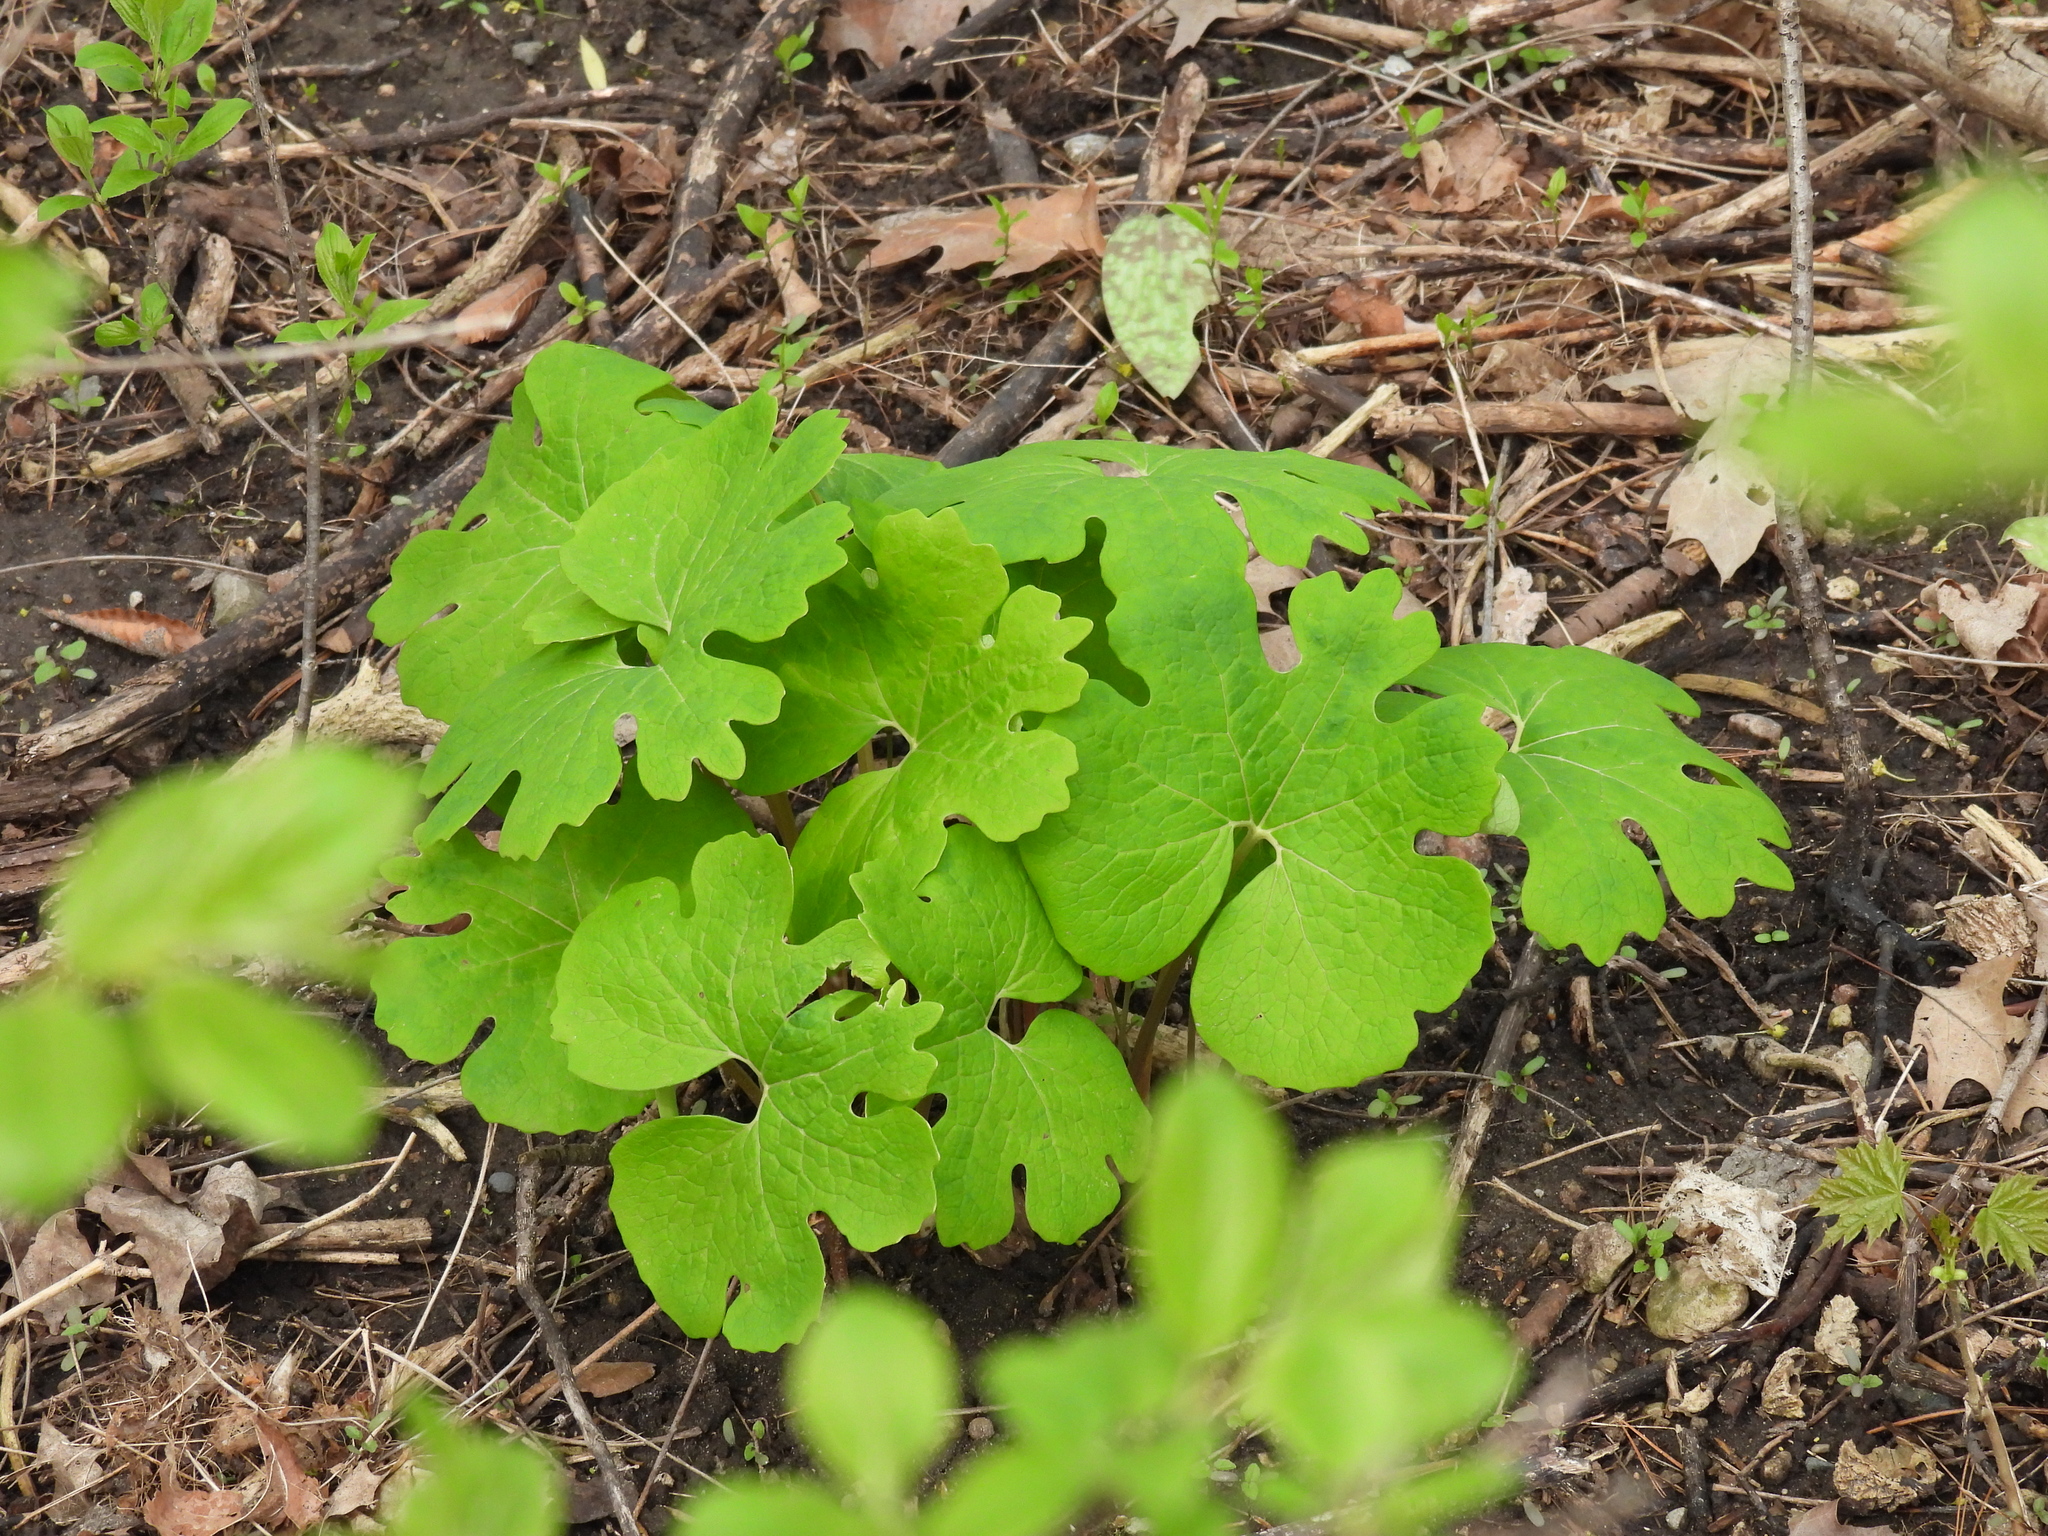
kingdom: Plantae
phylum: Tracheophyta
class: Magnoliopsida
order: Ranunculales
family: Papaveraceae
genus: Sanguinaria
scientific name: Sanguinaria canadensis
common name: Bloodroot
